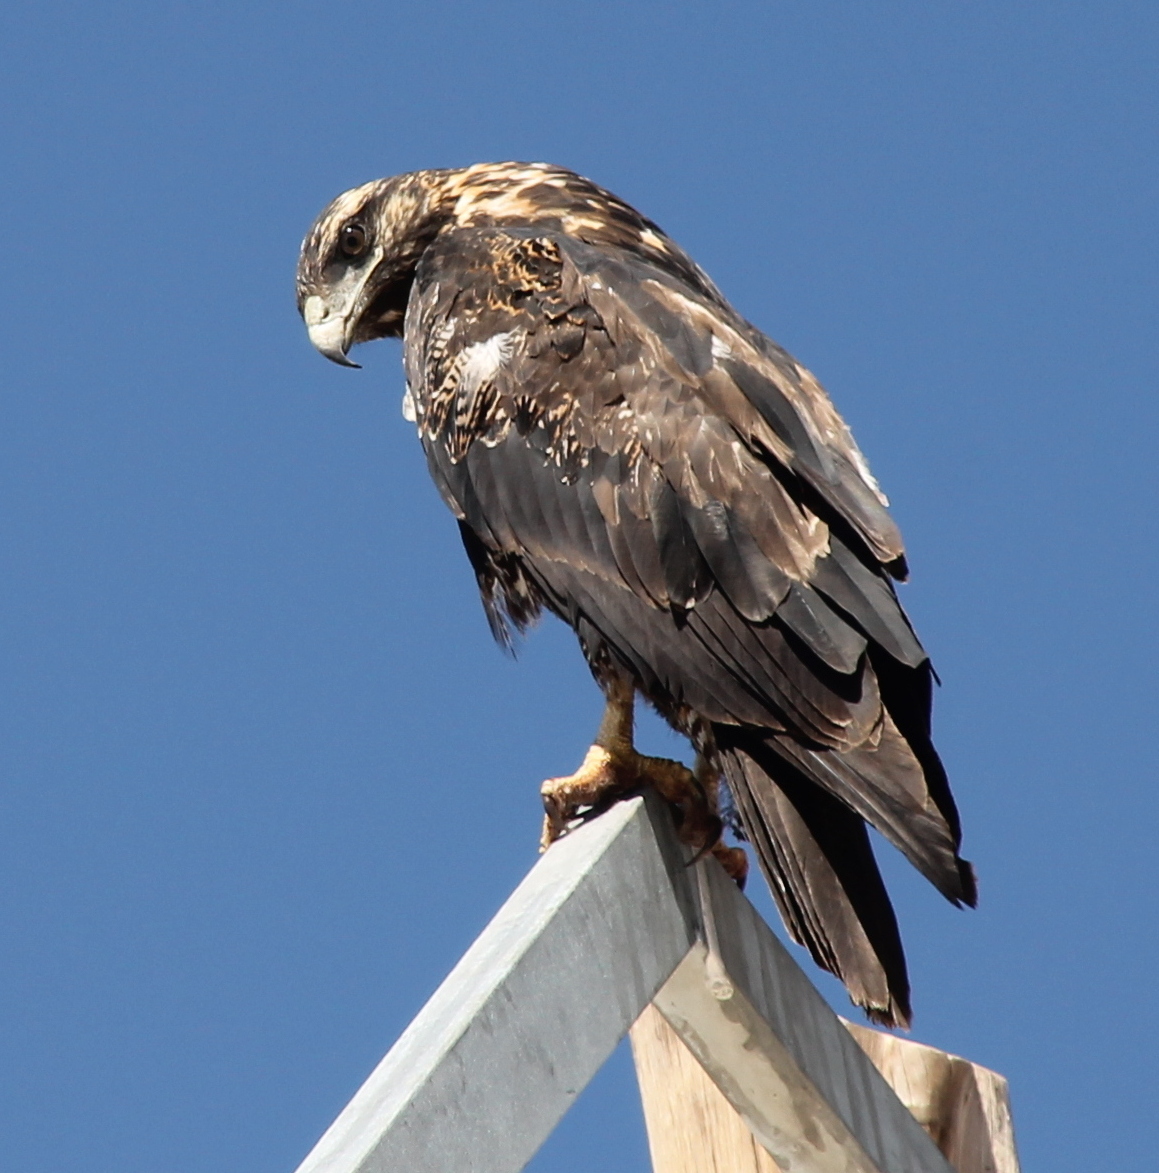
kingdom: Animalia
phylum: Chordata
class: Aves
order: Accipitriformes
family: Accipitridae
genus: Geranoaetus
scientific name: Geranoaetus melanoleucus
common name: Black-chested buzzard-eagle
